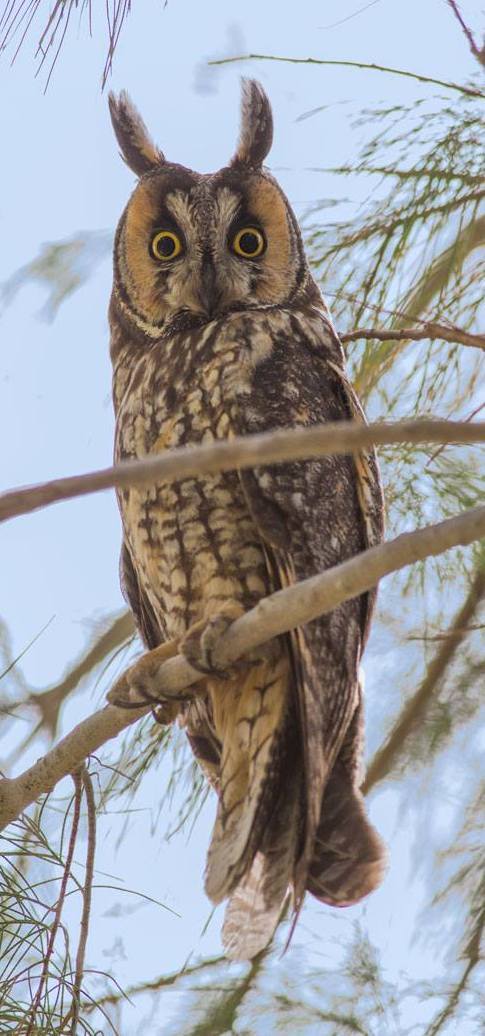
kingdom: Animalia
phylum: Chordata
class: Aves
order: Strigiformes
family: Strigidae
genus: Asio
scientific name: Asio otus
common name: Long-eared owl
